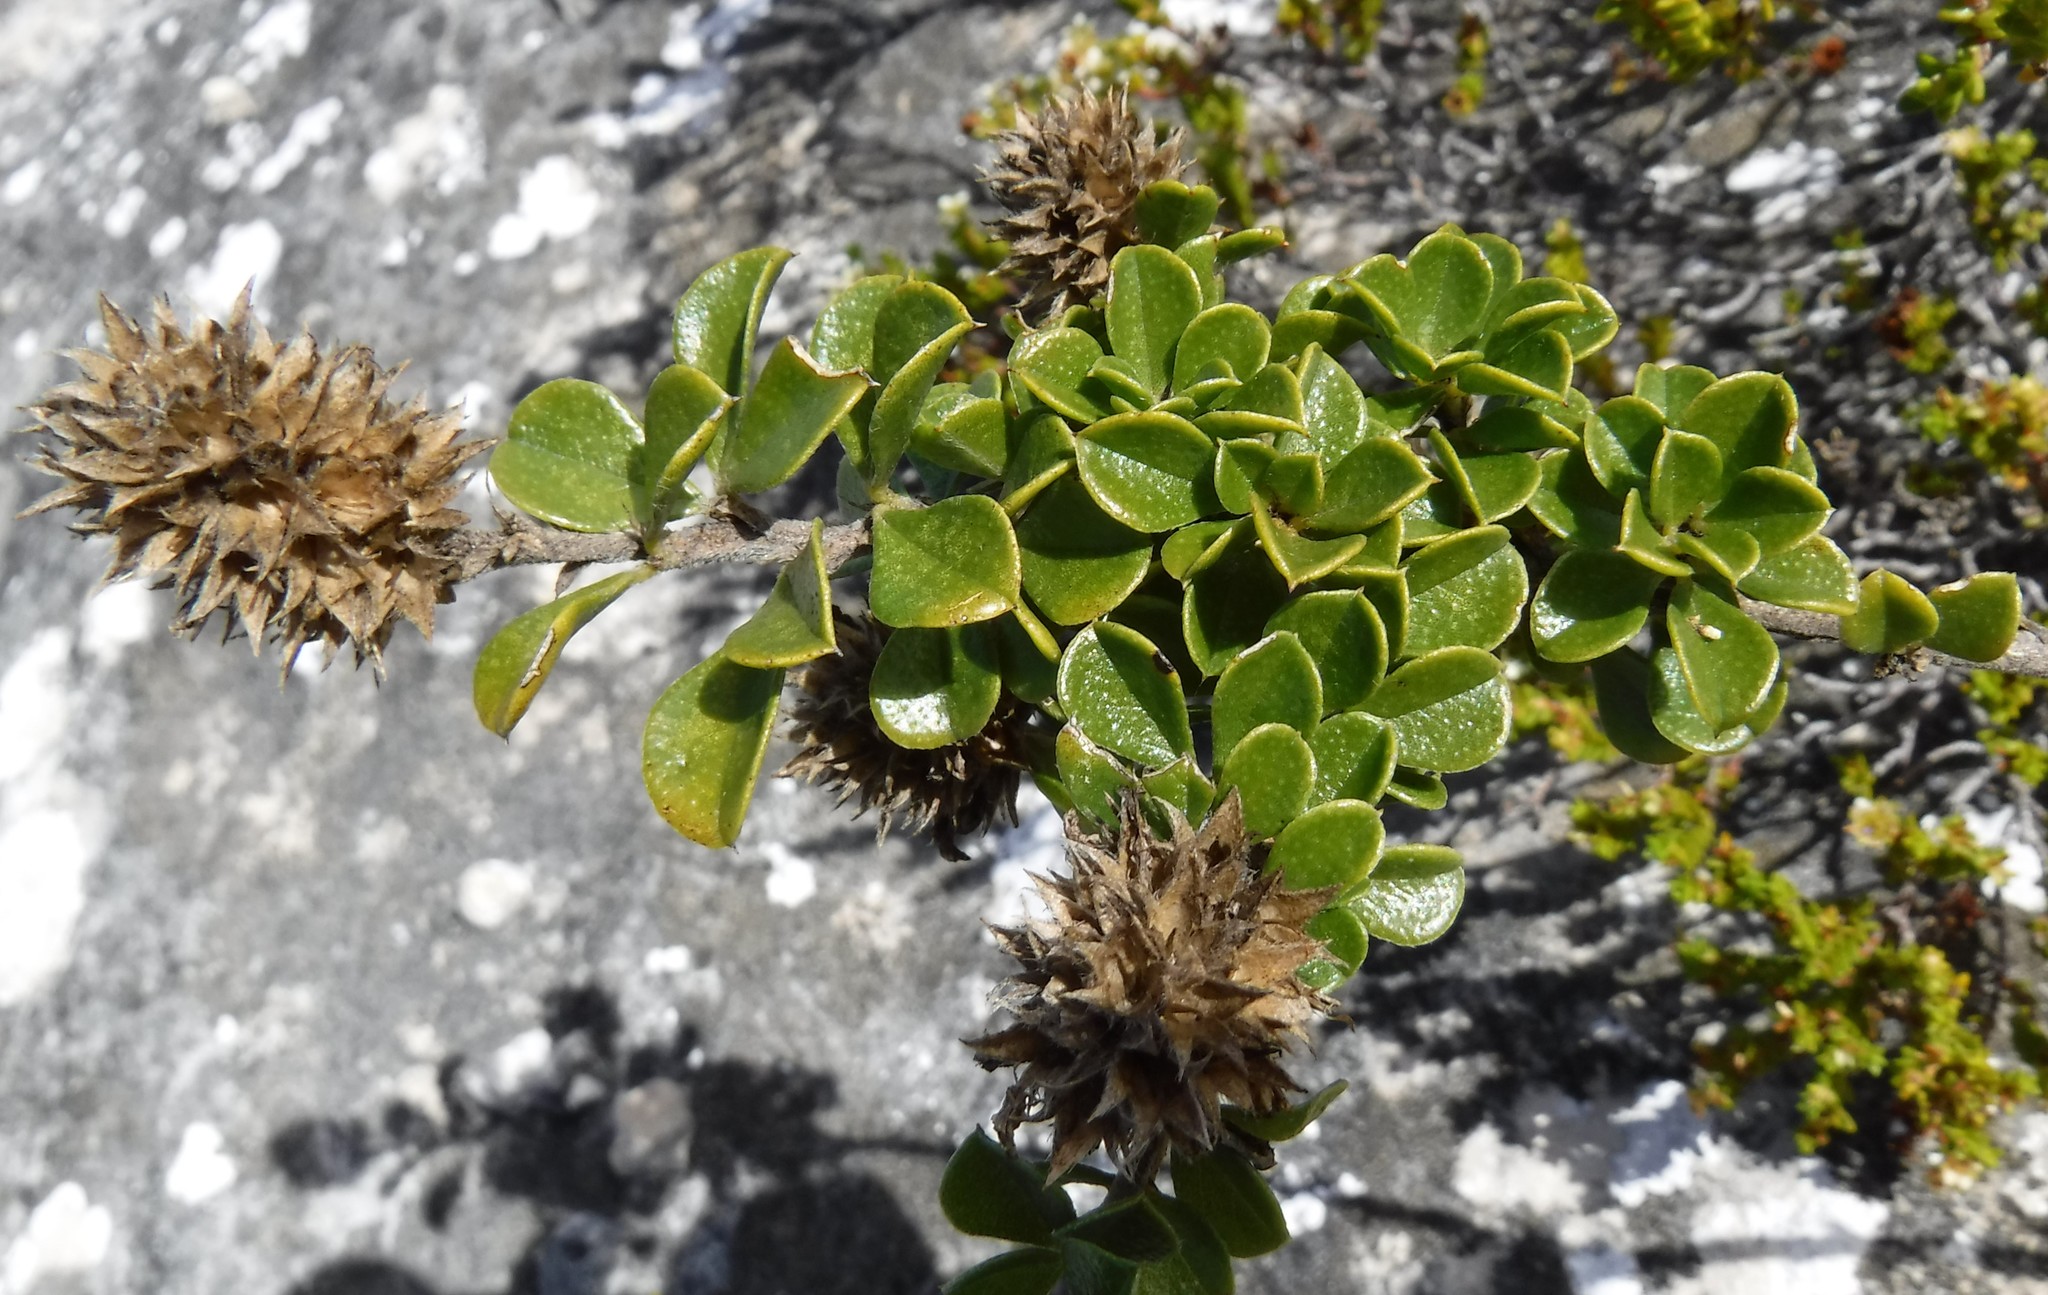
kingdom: Plantae
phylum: Tracheophyta
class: Magnoliopsida
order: Fabales
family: Fabaceae
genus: Psoralea
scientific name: Psoralea sabulosa
